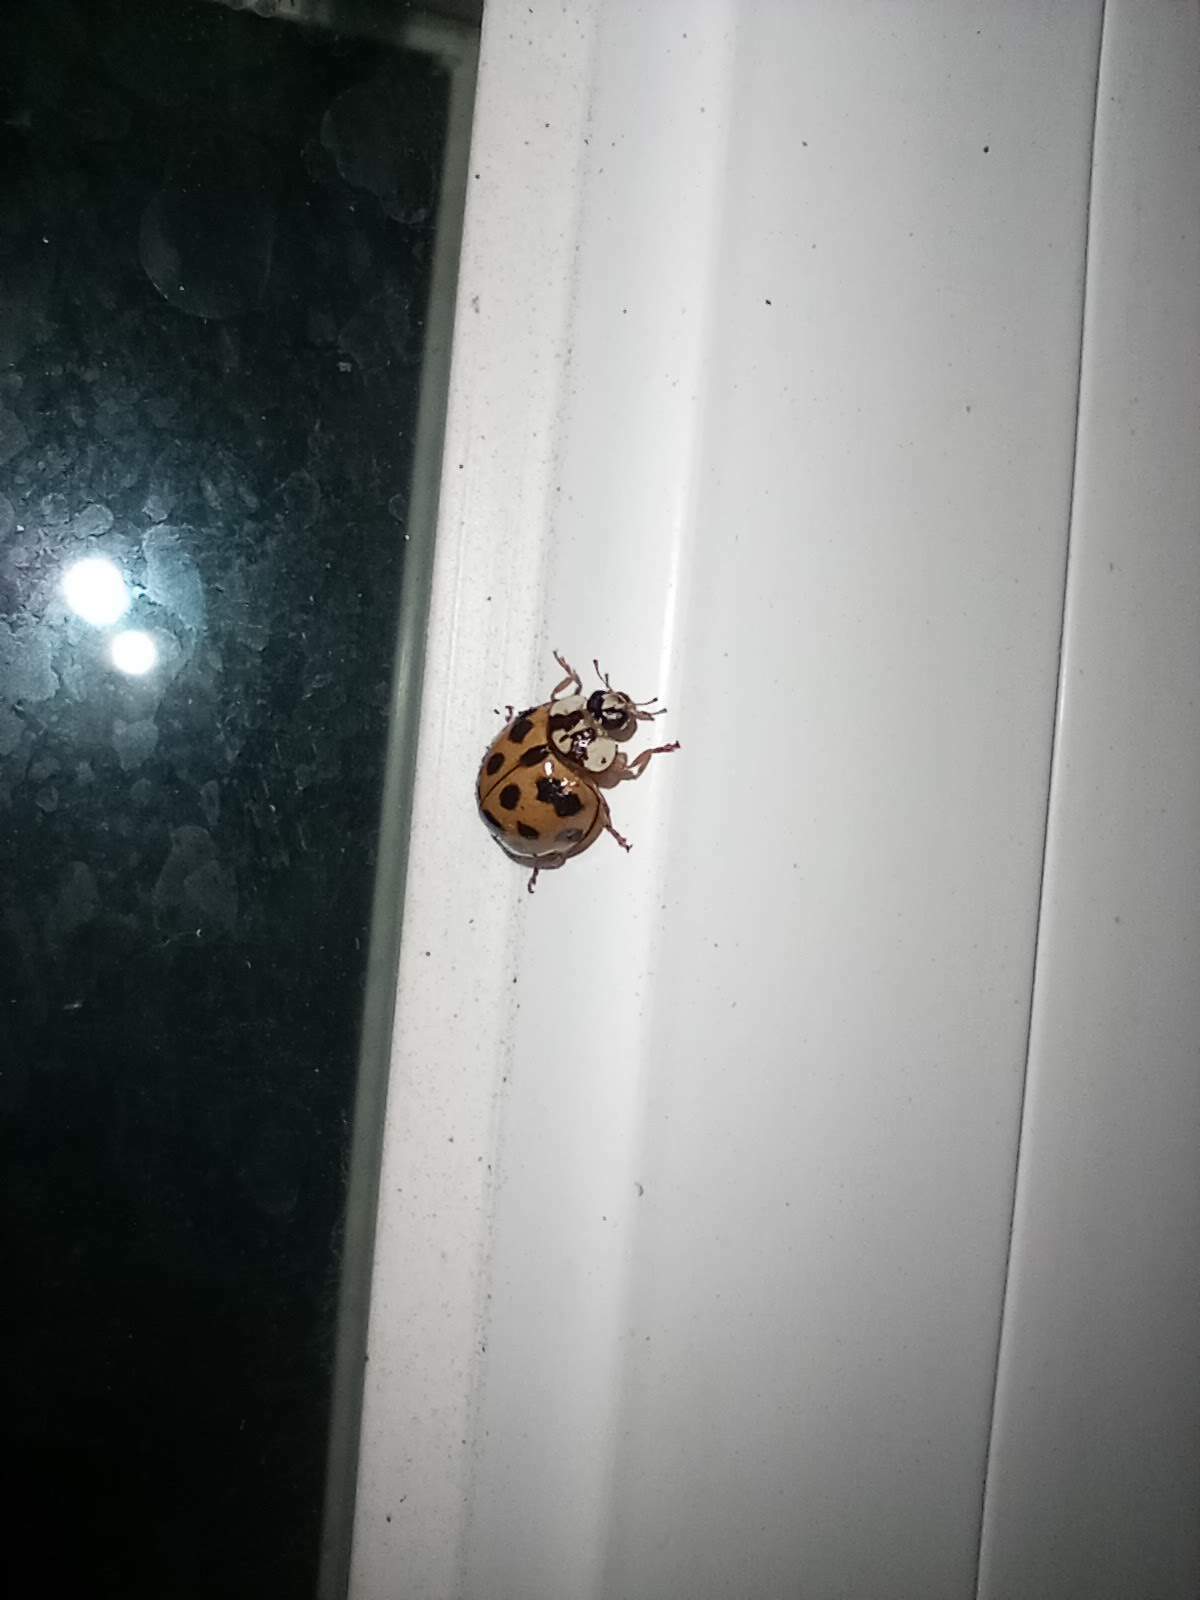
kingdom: Animalia
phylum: Arthropoda
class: Insecta
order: Coleoptera
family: Coccinellidae
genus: Harmonia
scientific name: Harmonia axyridis
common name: Harlequin ladybird
